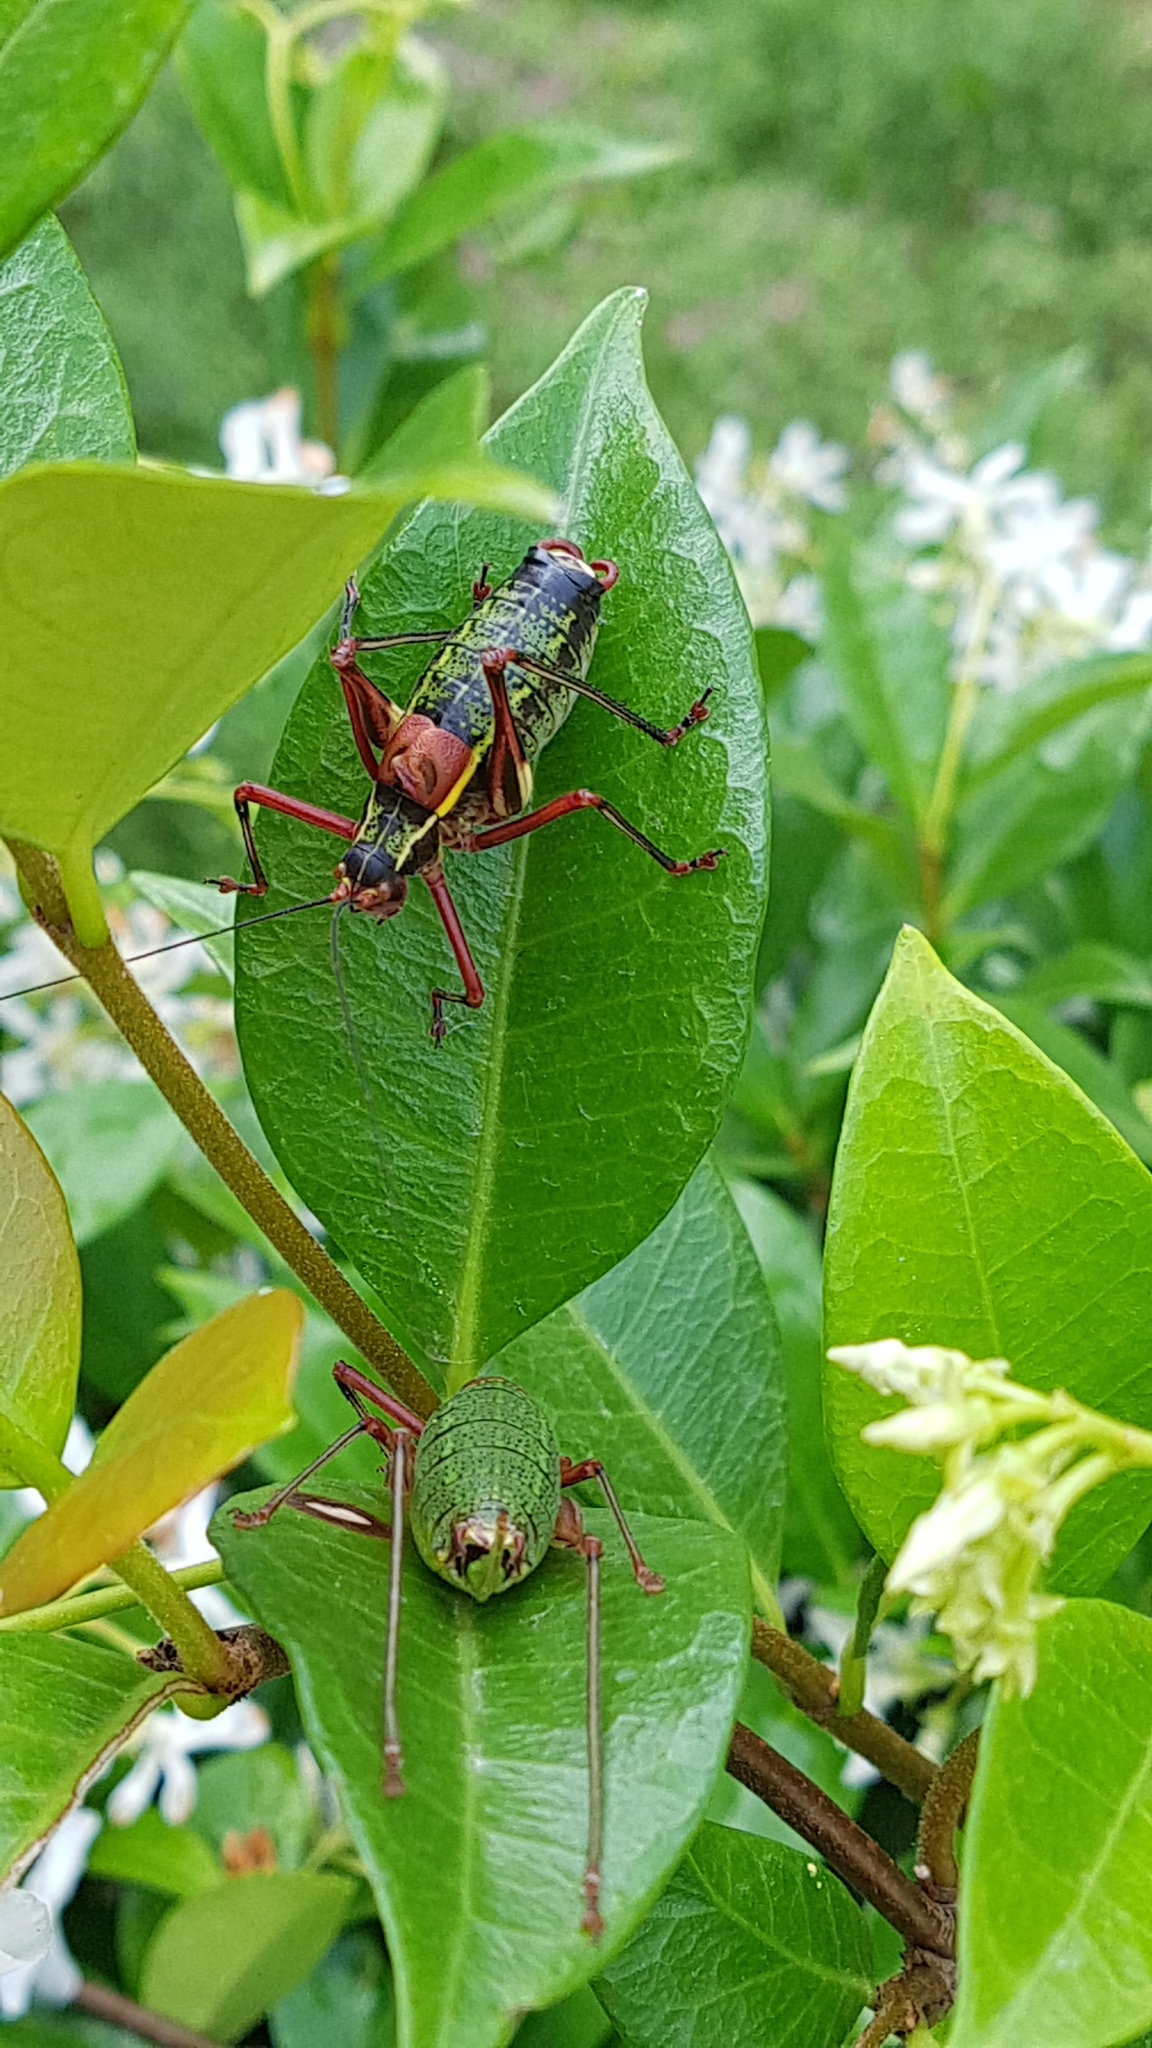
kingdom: Animalia
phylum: Arthropoda
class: Insecta
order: Orthoptera
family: Tettigoniidae
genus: Barbitistes
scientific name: Barbitistes vicetinus
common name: Vicentine saw-tailed bush-cricket
